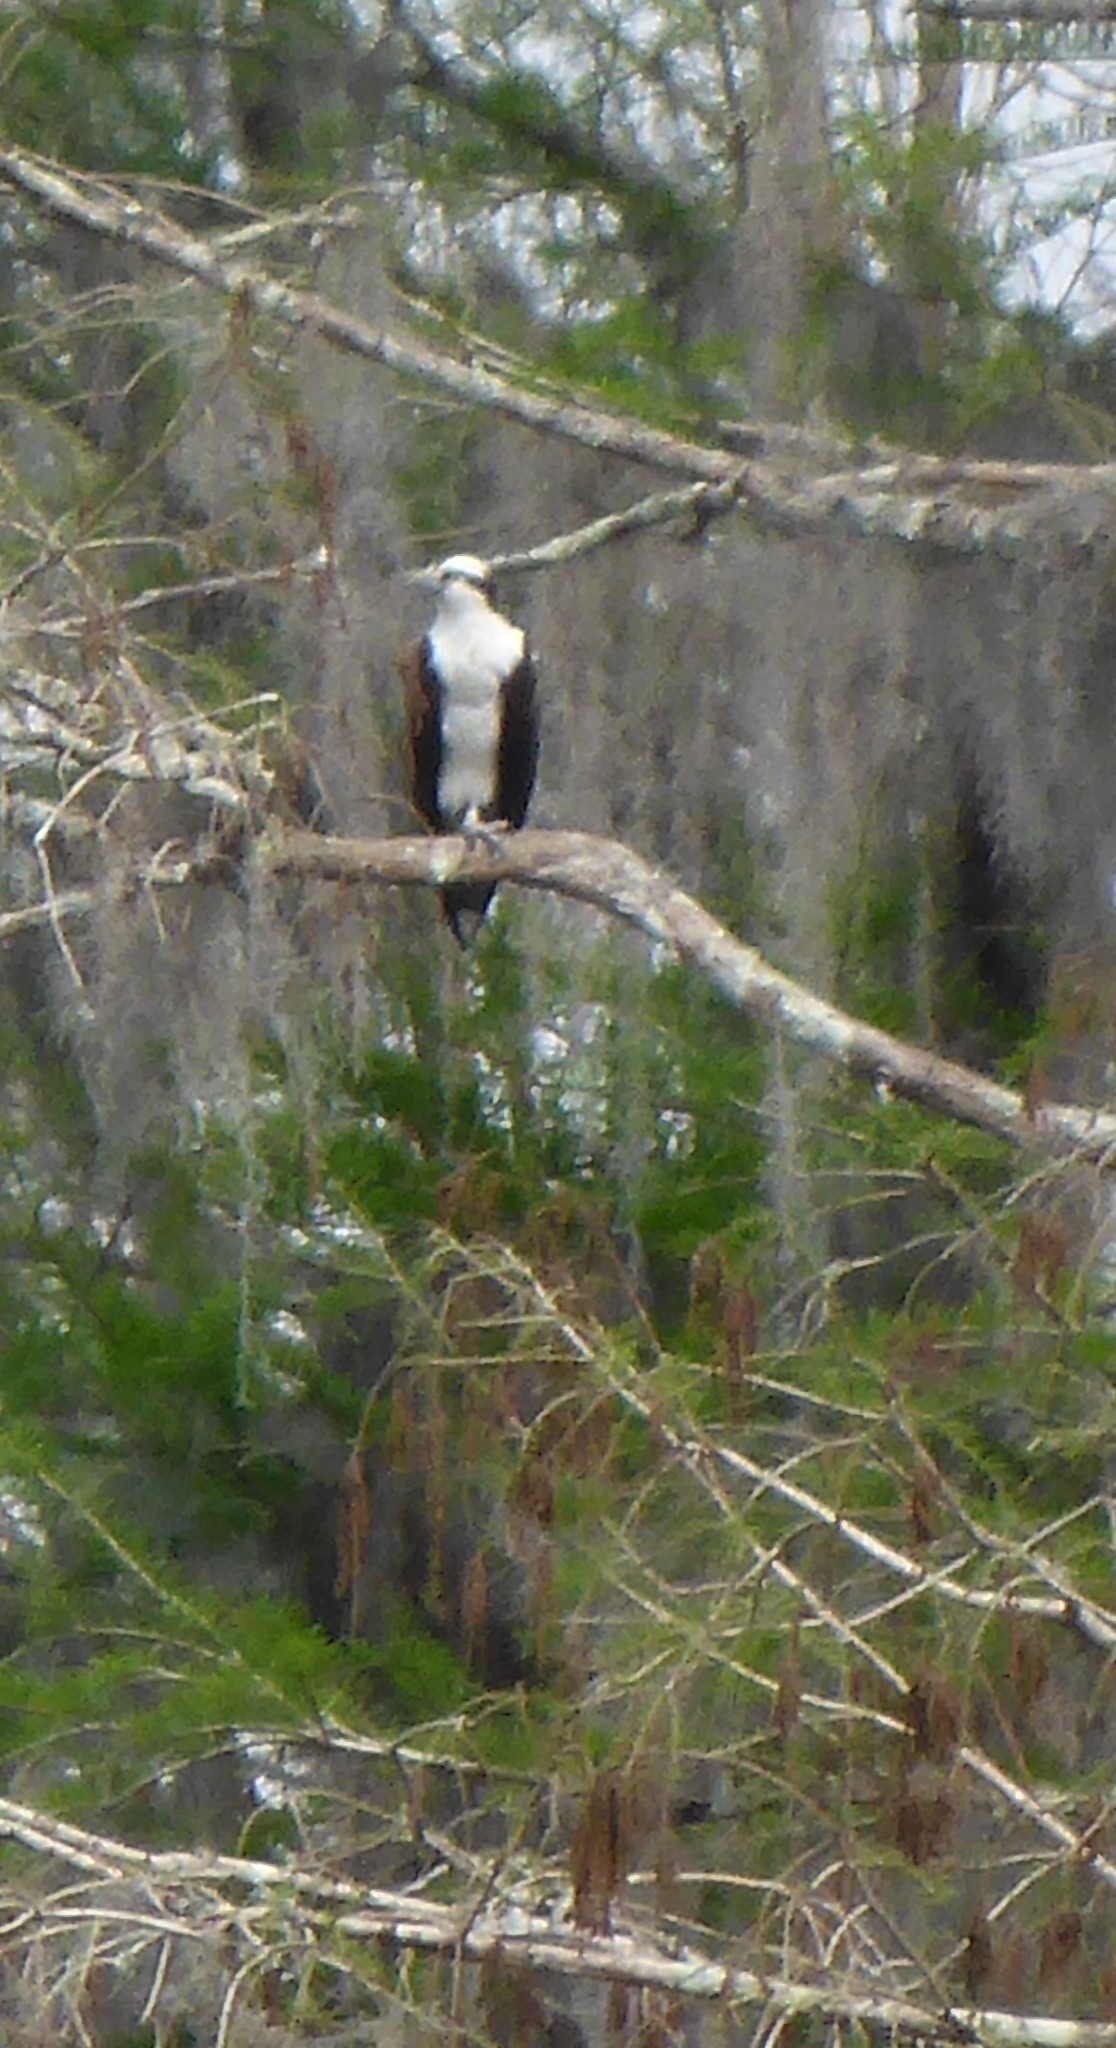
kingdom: Animalia
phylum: Chordata
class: Aves
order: Accipitriformes
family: Pandionidae
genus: Pandion
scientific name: Pandion haliaetus
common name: Osprey
